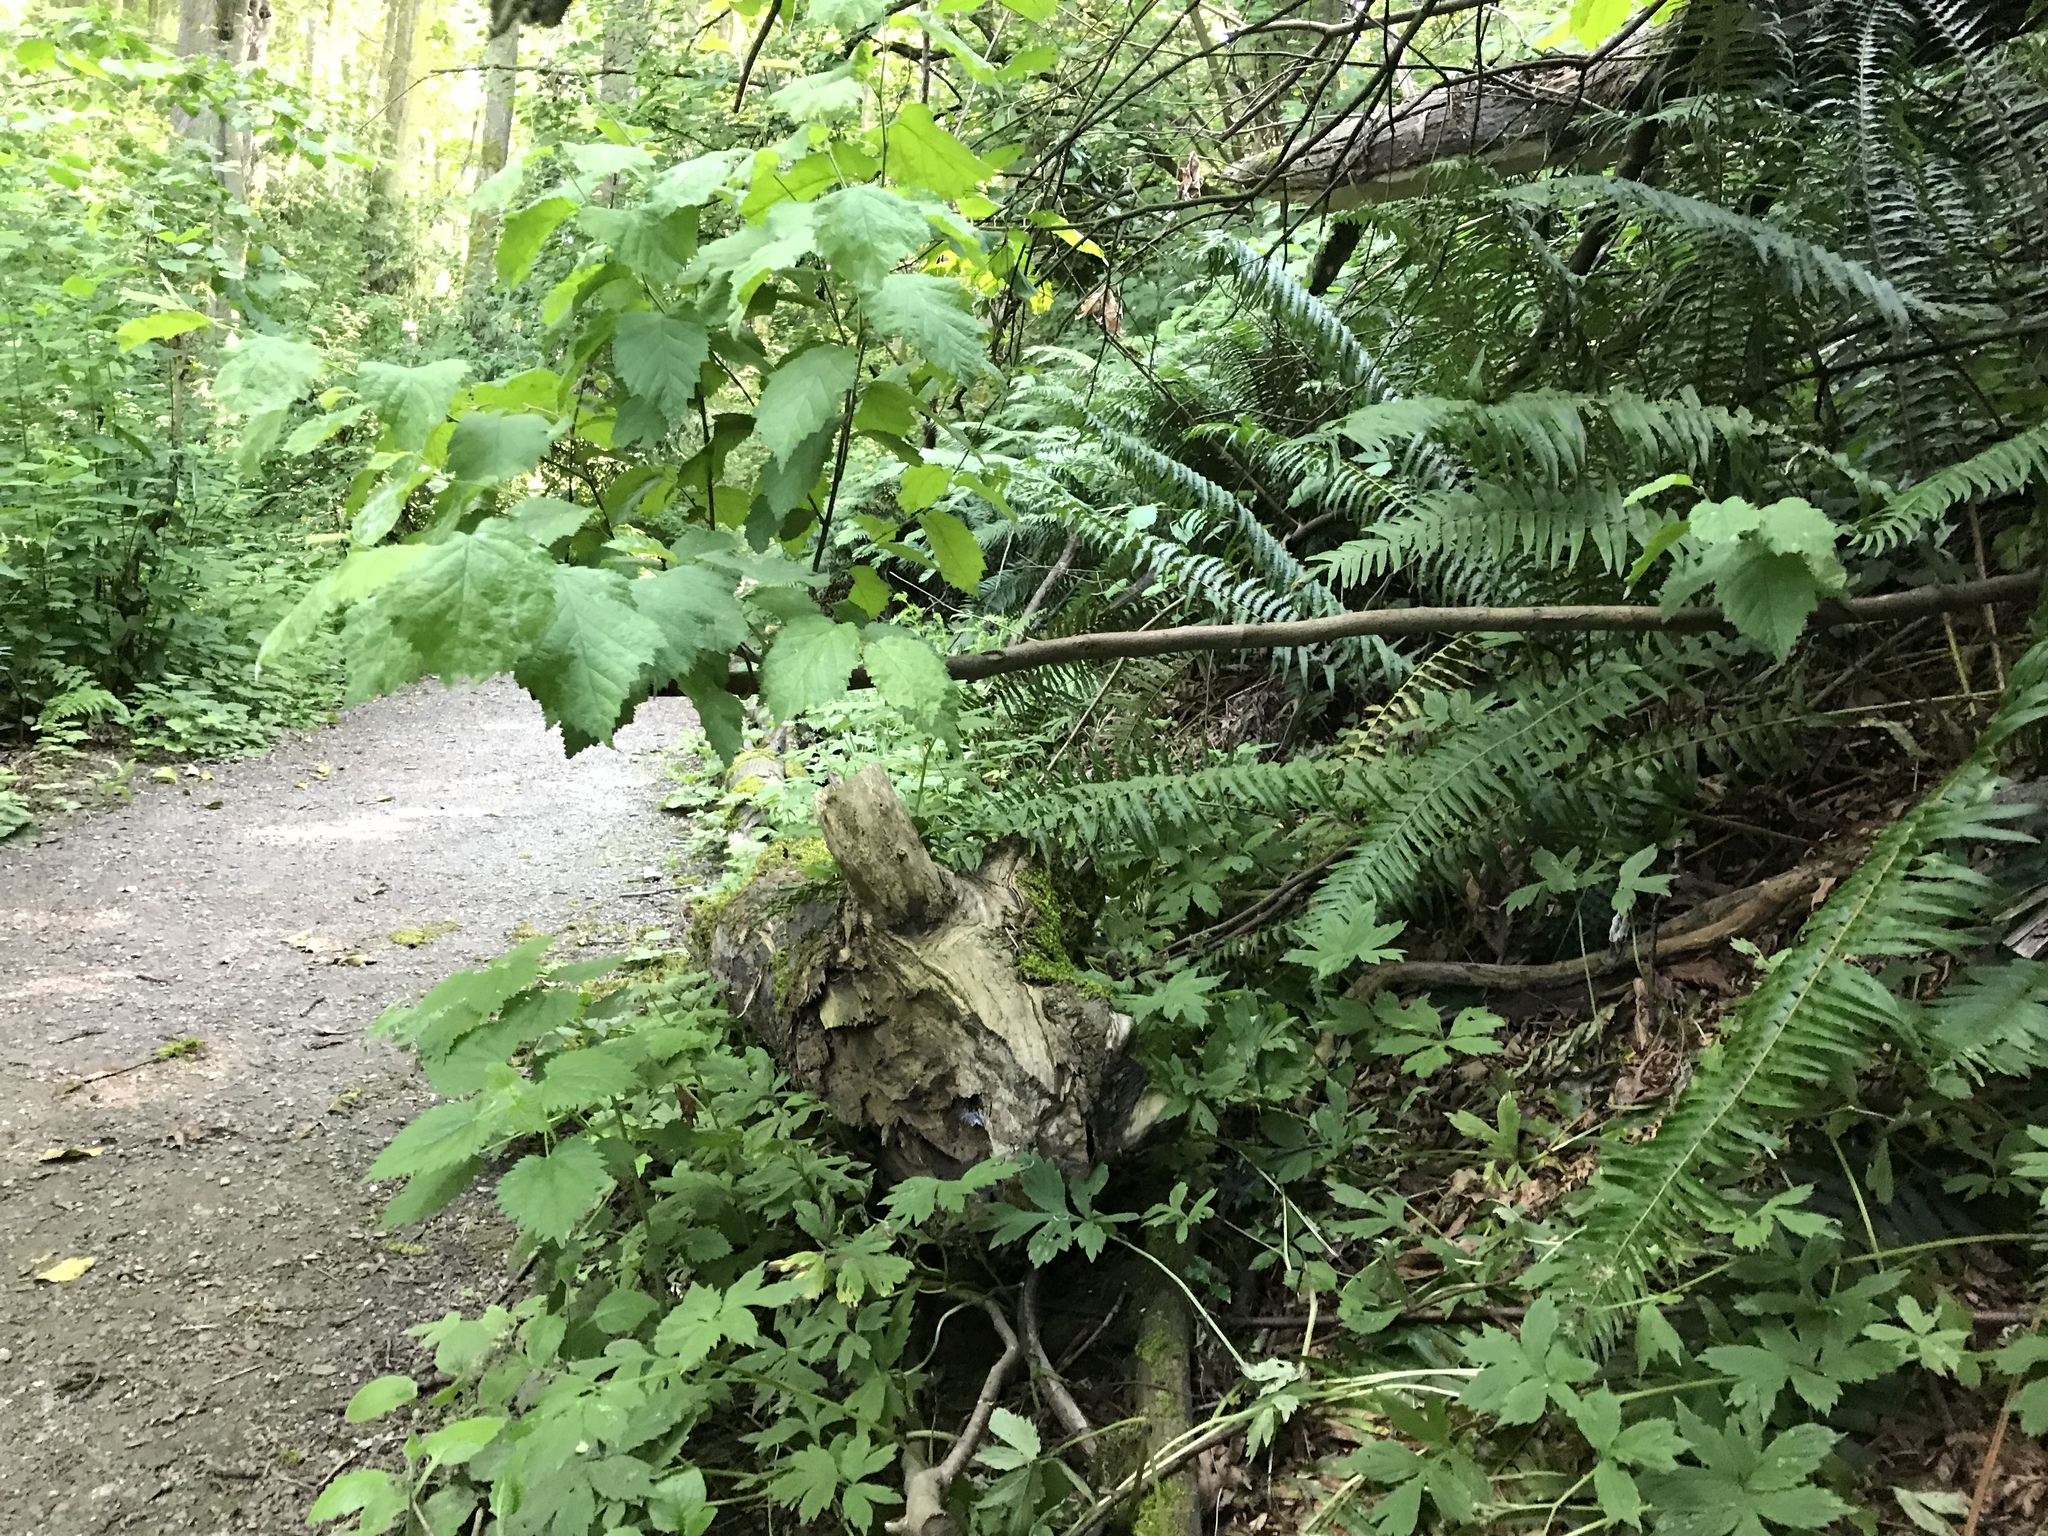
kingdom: Plantae
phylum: Tracheophyta
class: Magnoliopsida
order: Fagales
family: Betulaceae
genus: Corylus
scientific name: Corylus cornuta
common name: Beaked hazel
